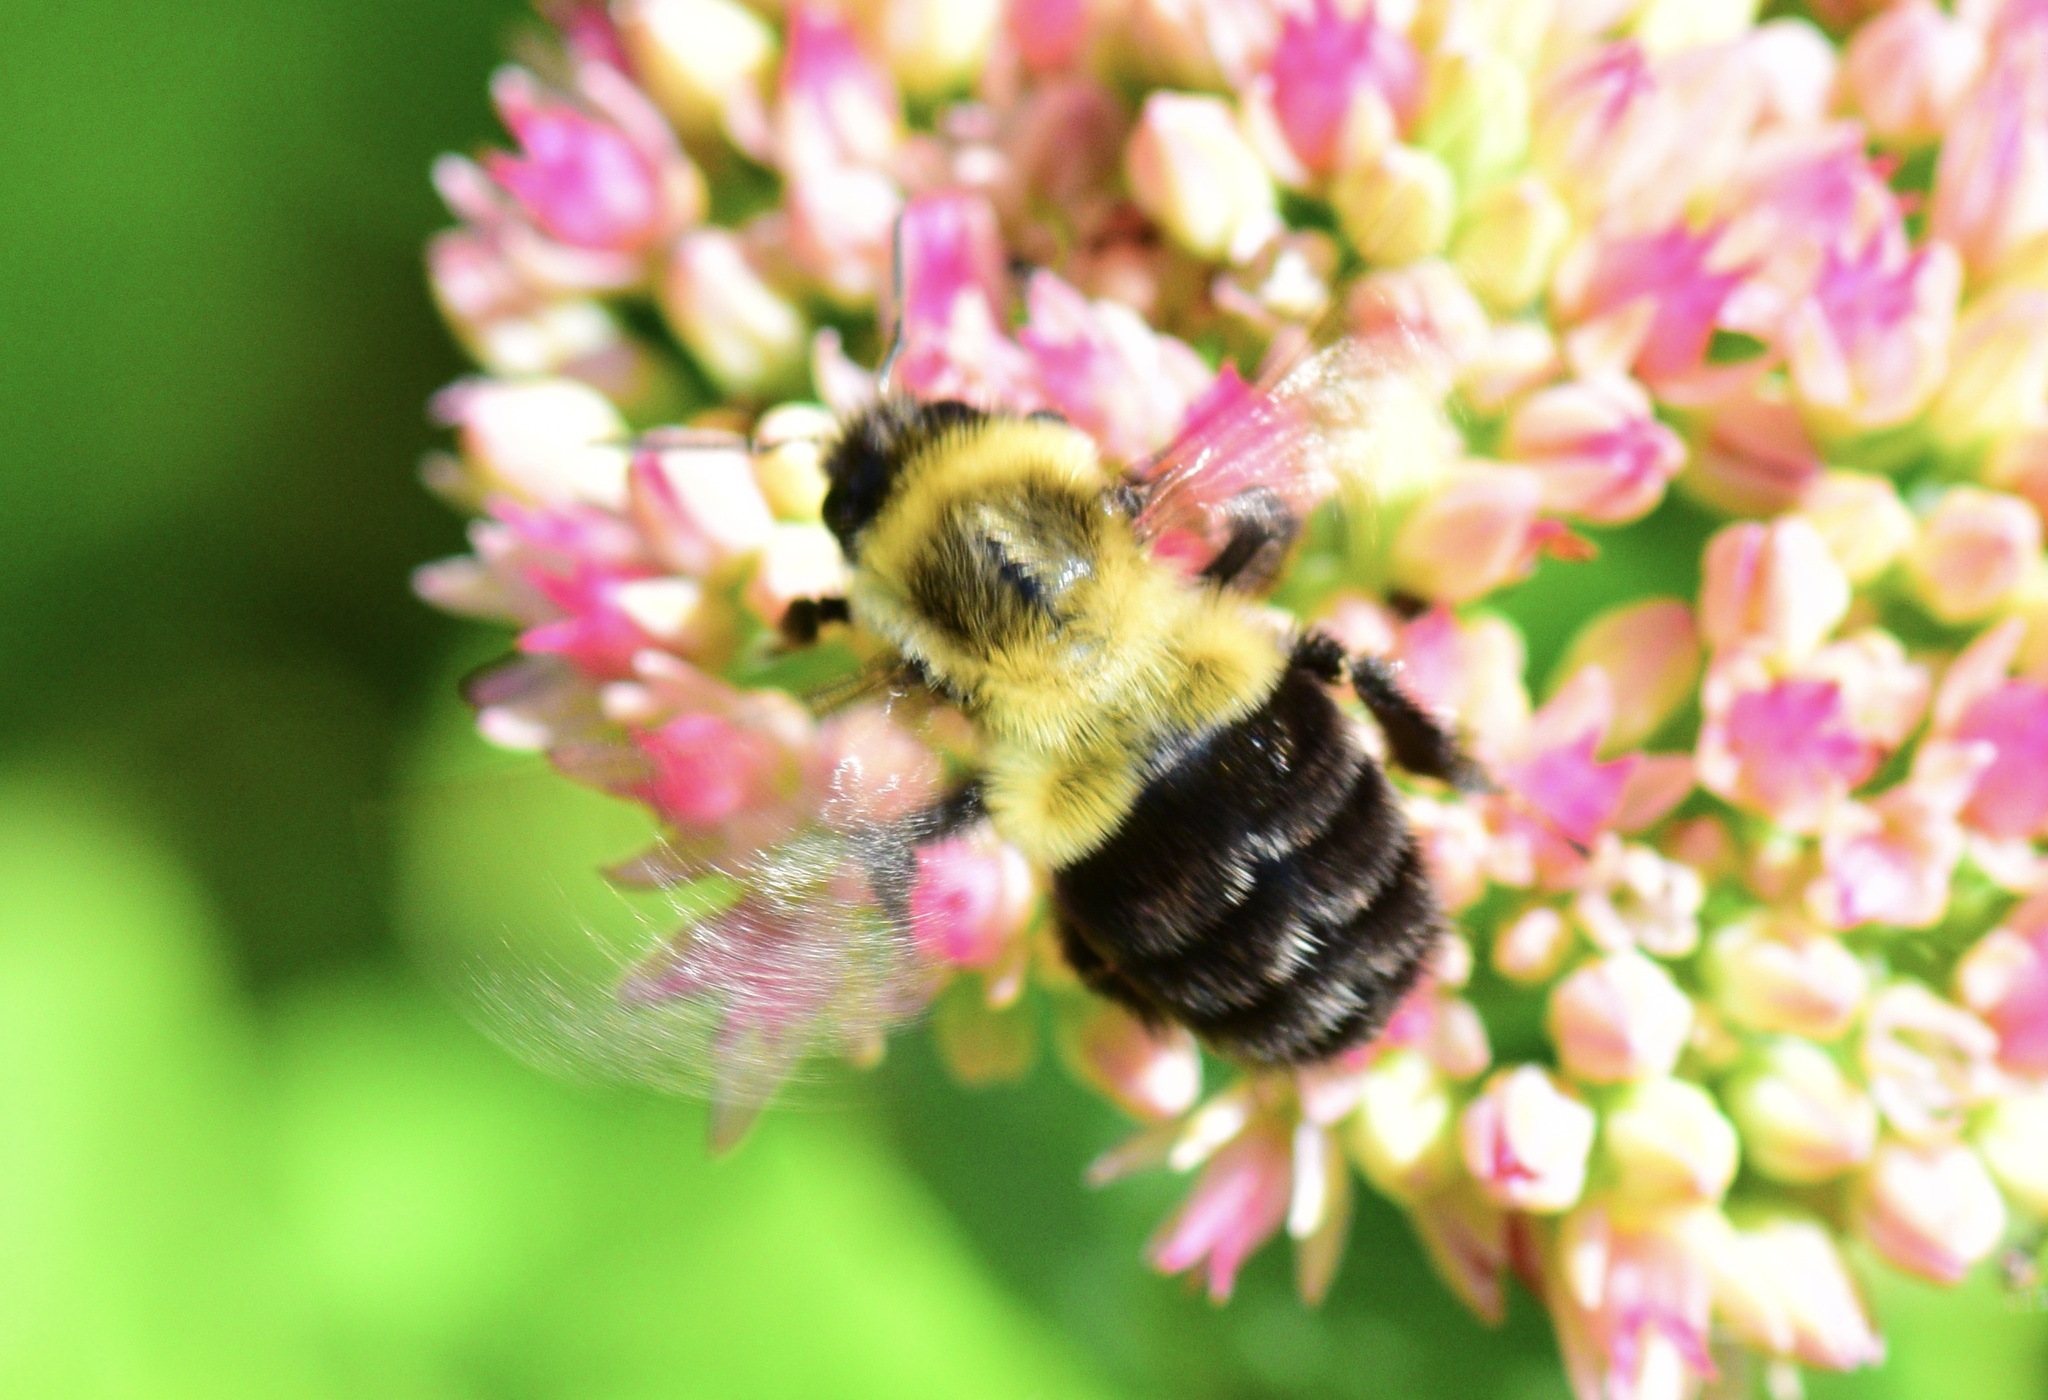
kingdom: Animalia
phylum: Arthropoda
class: Insecta
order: Hymenoptera
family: Apidae
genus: Bombus
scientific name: Bombus impatiens
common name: Common eastern bumble bee
